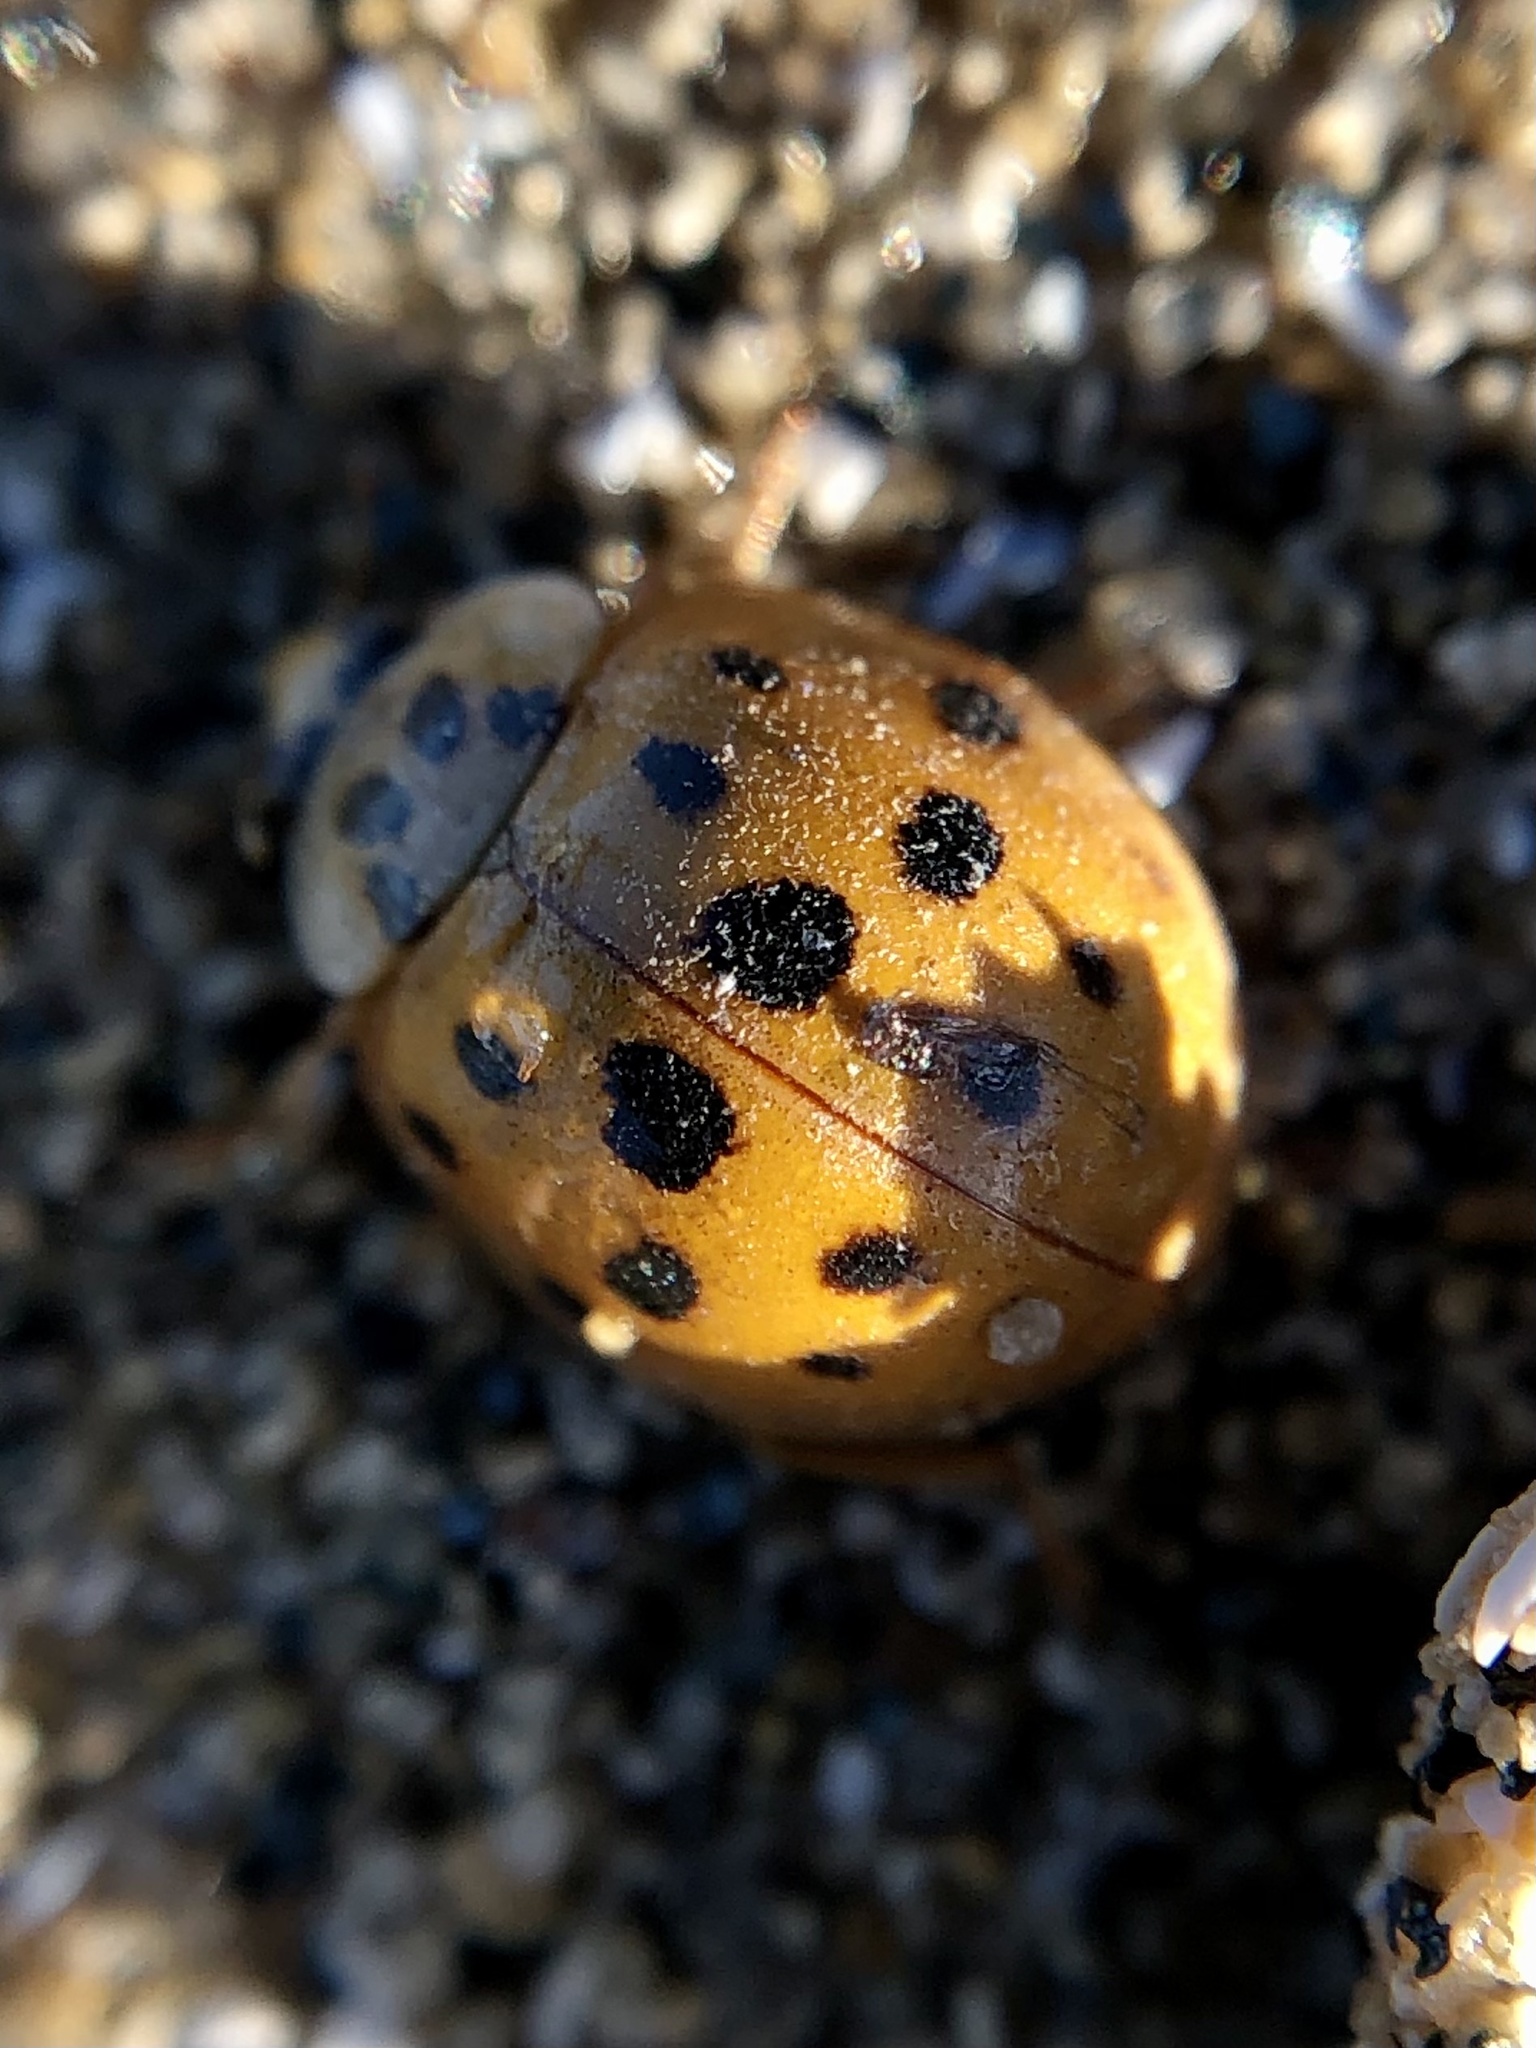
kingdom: Animalia
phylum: Arthropoda
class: Insecta
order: Coleoptera
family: Coccinellidae
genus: Harmonia
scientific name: Harmonia axyridis
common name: Harlequin ladybird
